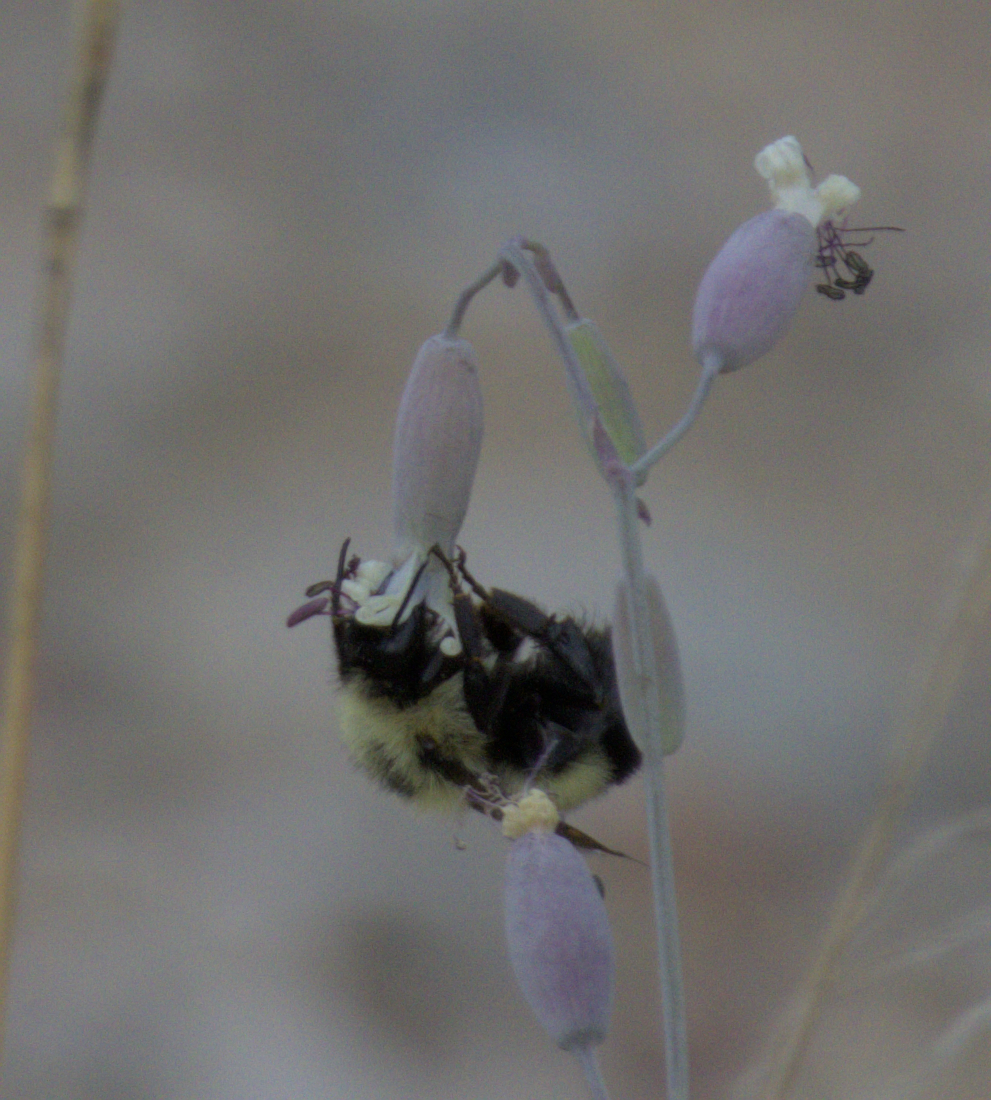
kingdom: Animalia
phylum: Arthropoda
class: Insecta
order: Hymenoptera
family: Apidae
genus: Pyrobombus
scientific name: Pyrobombus
